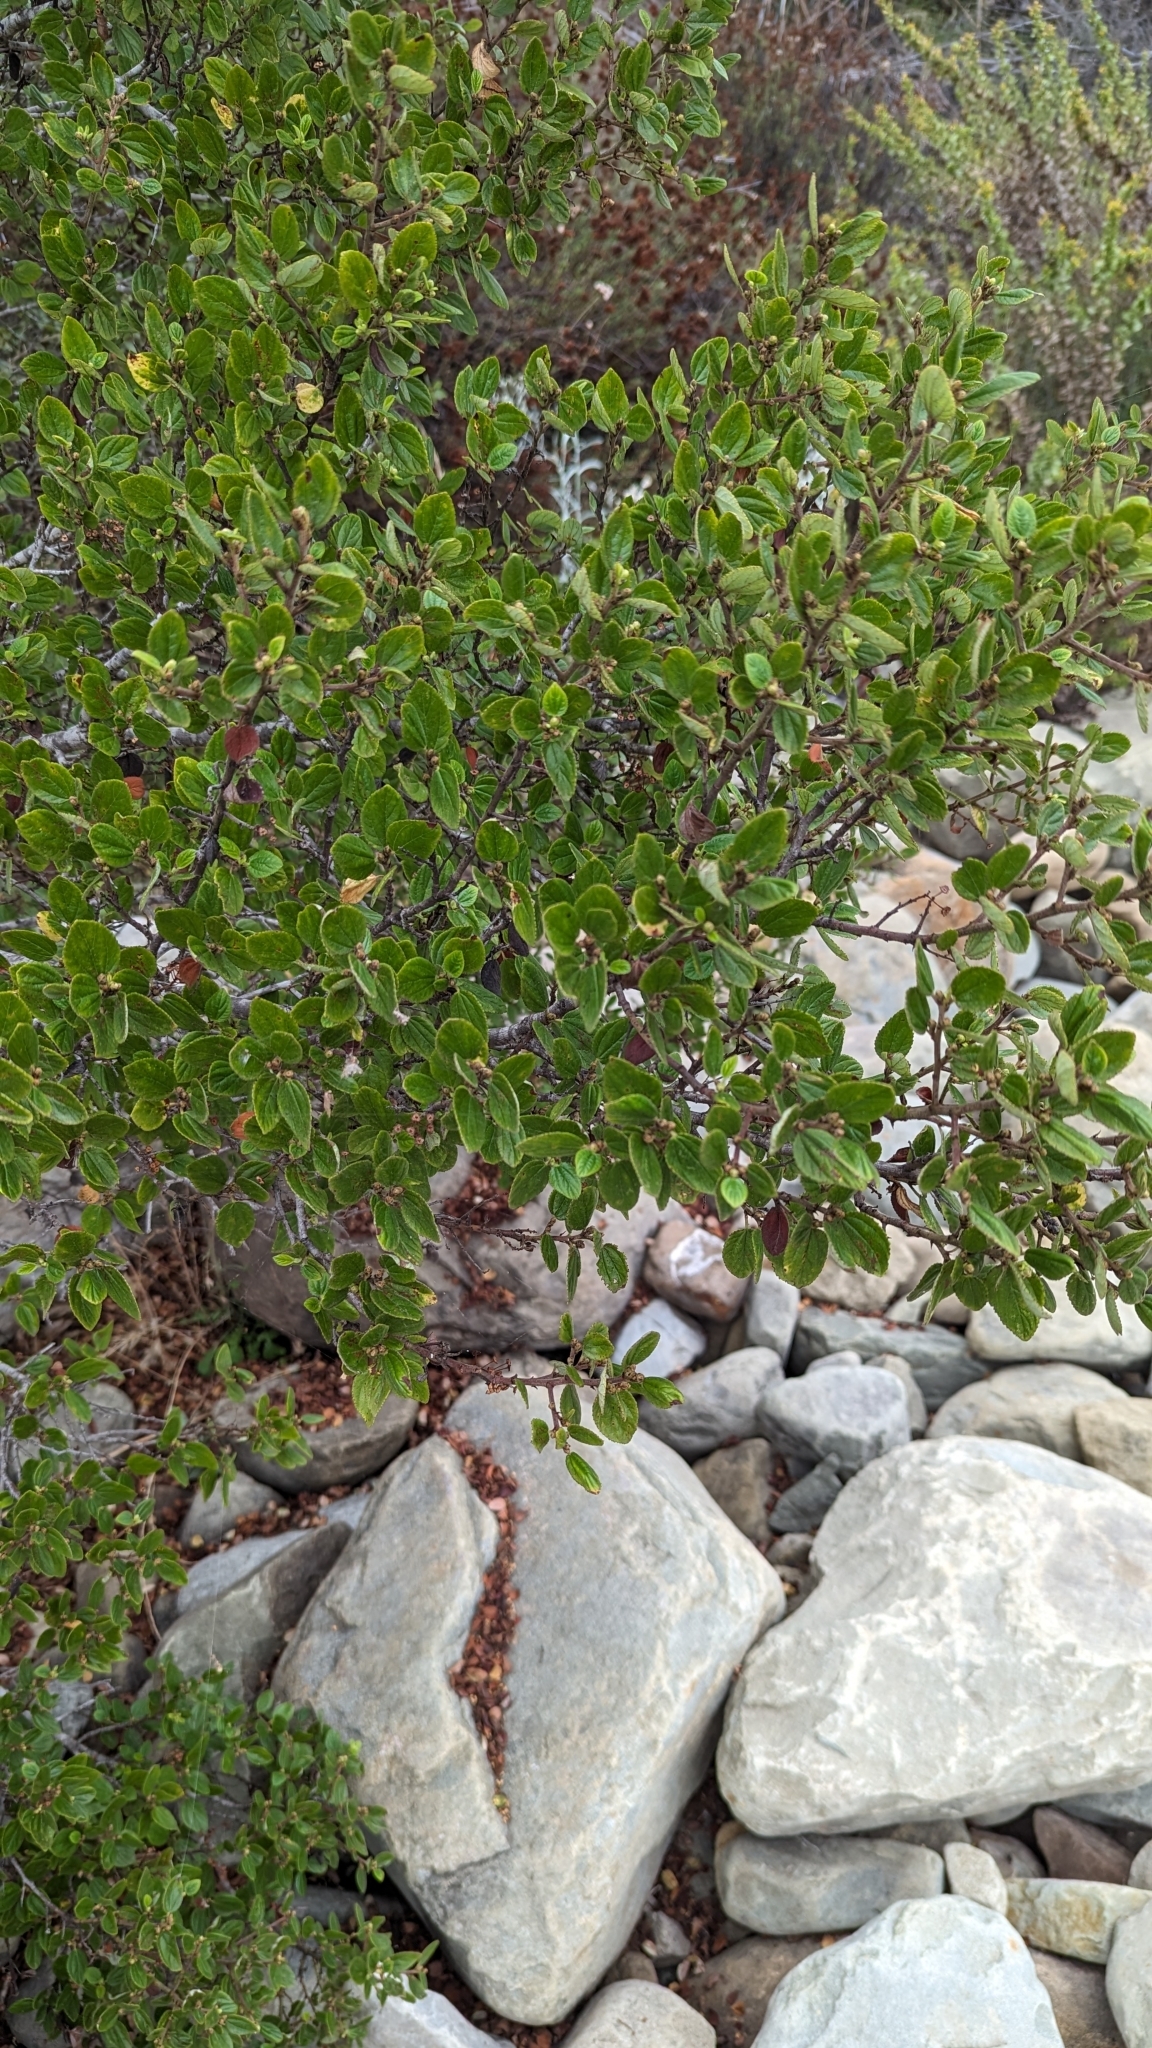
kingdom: Plantae
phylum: Tracheophyta
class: Magnoliopsida
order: Rosales
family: Rhamnaceae
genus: Ceanothus
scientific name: Ceanothus oliganthus
